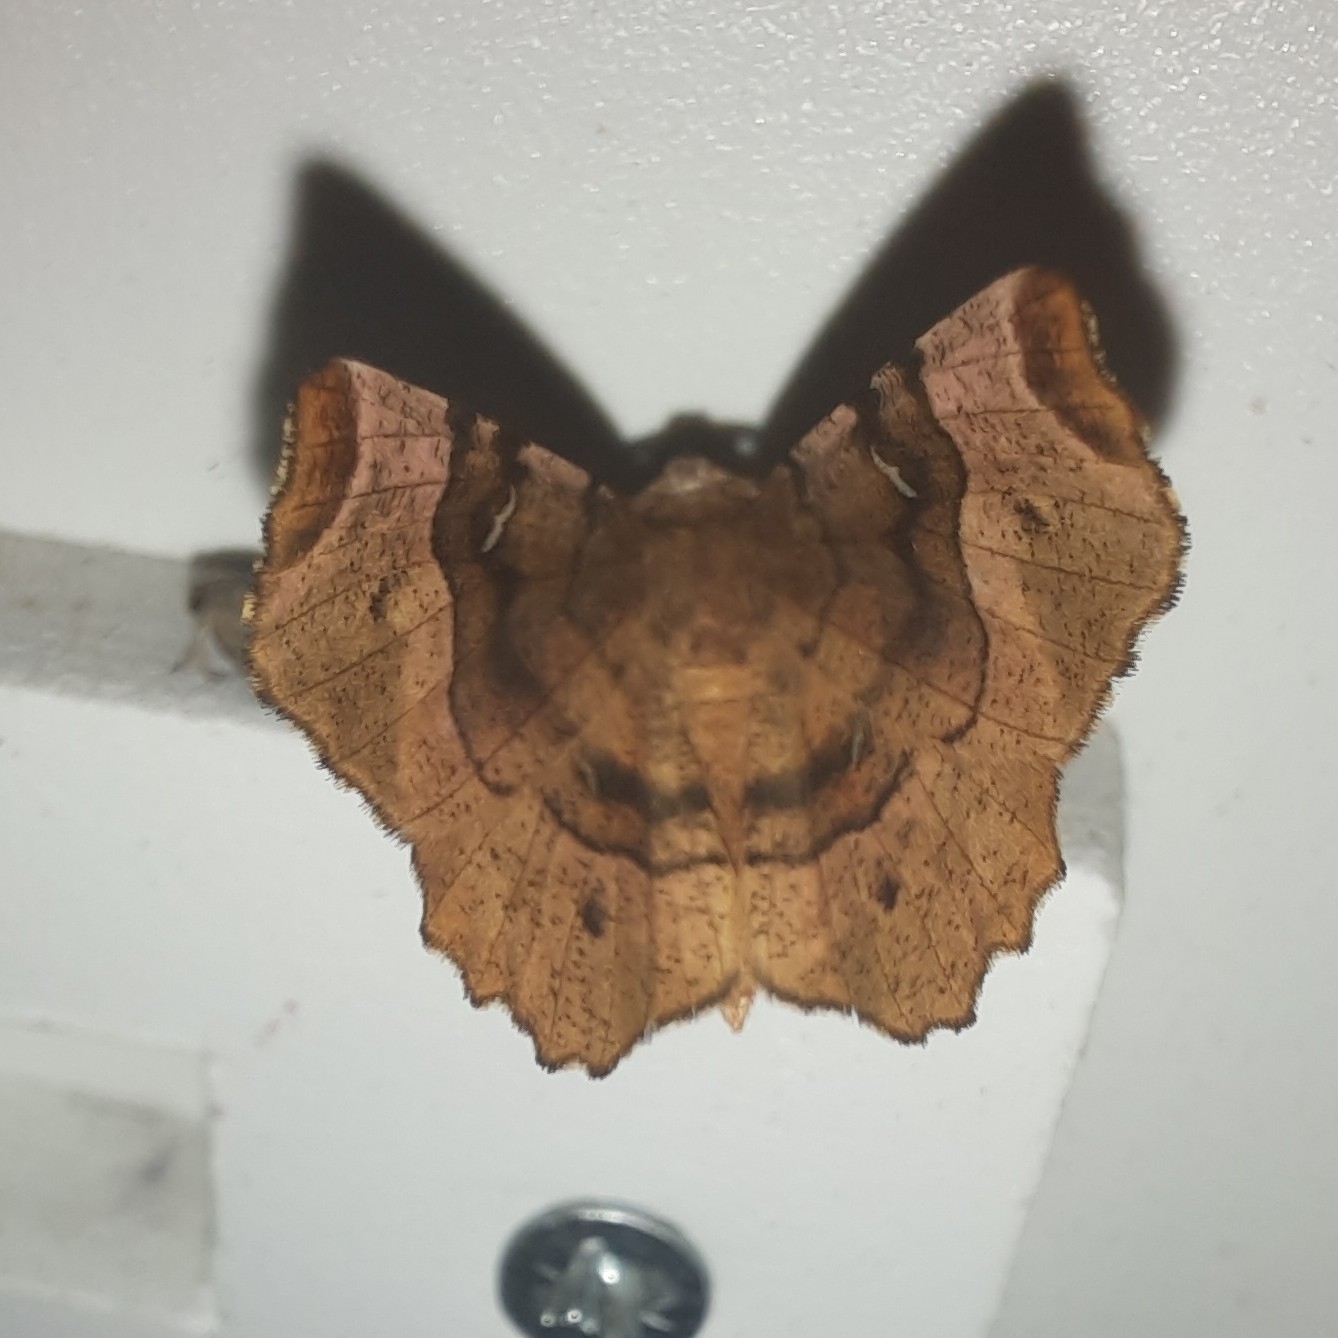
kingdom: Animalia
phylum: Arthropoda
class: Insecta
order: Lepidoptera
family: Geometridae
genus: Selenia
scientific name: Selenia tetralunaria
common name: Purple thorn
